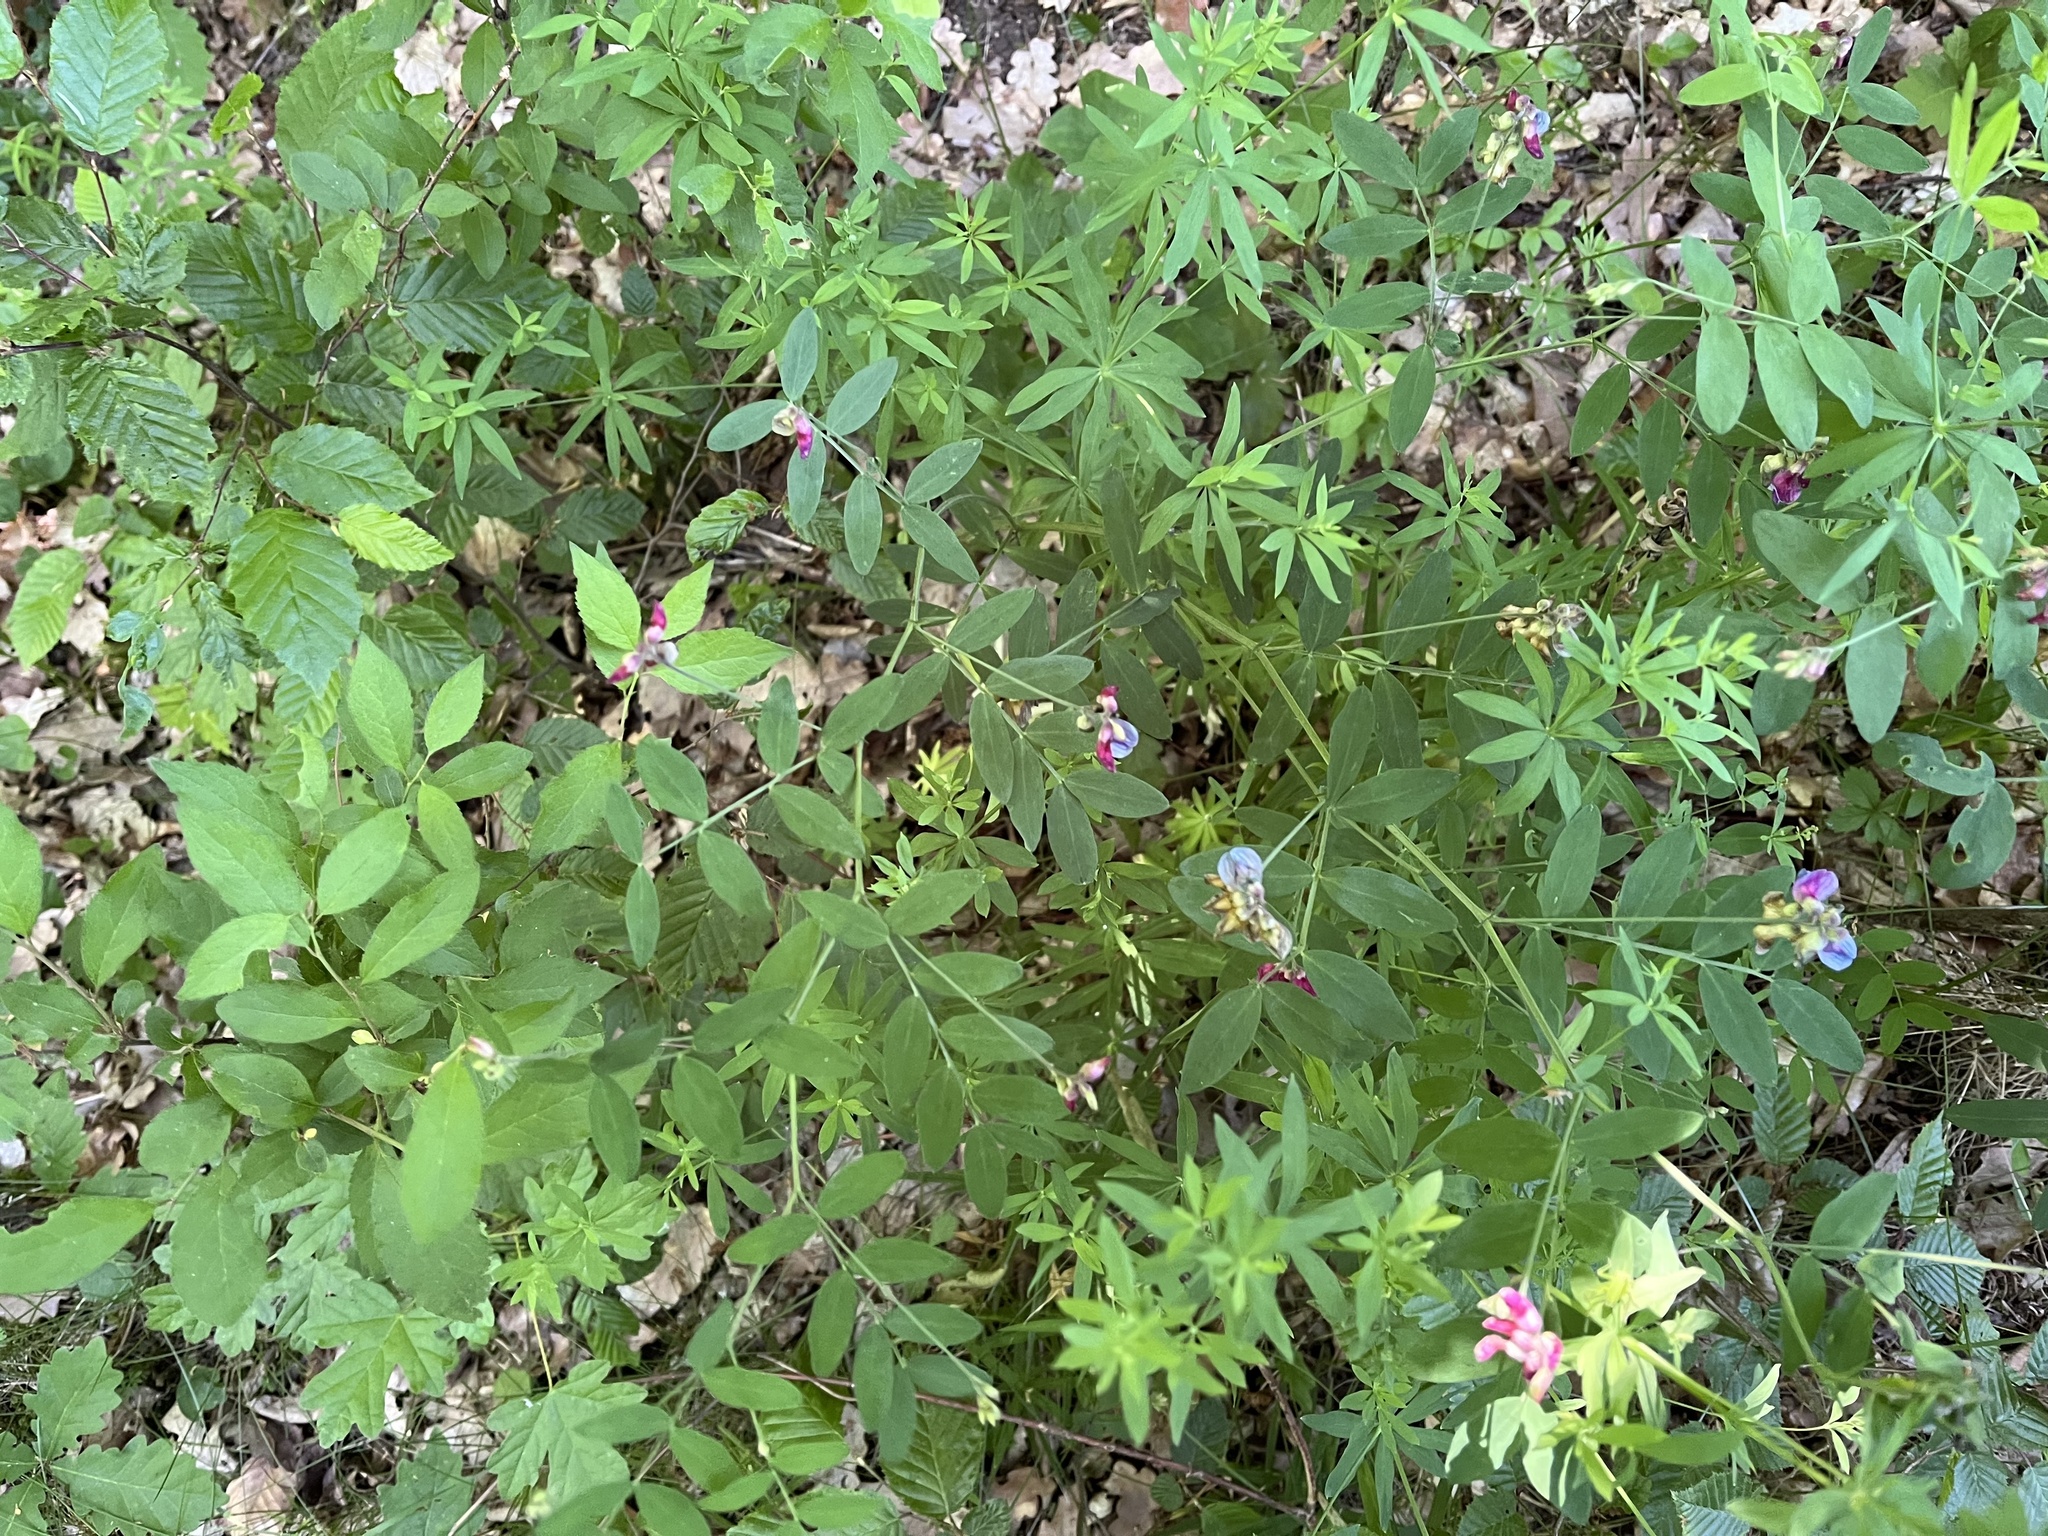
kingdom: Plantae
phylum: Tracheophyta
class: Magnoliopsida
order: Fabales
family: Fabaceae
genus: Lathyrus
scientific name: Lathyrus niger
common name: Black pea
